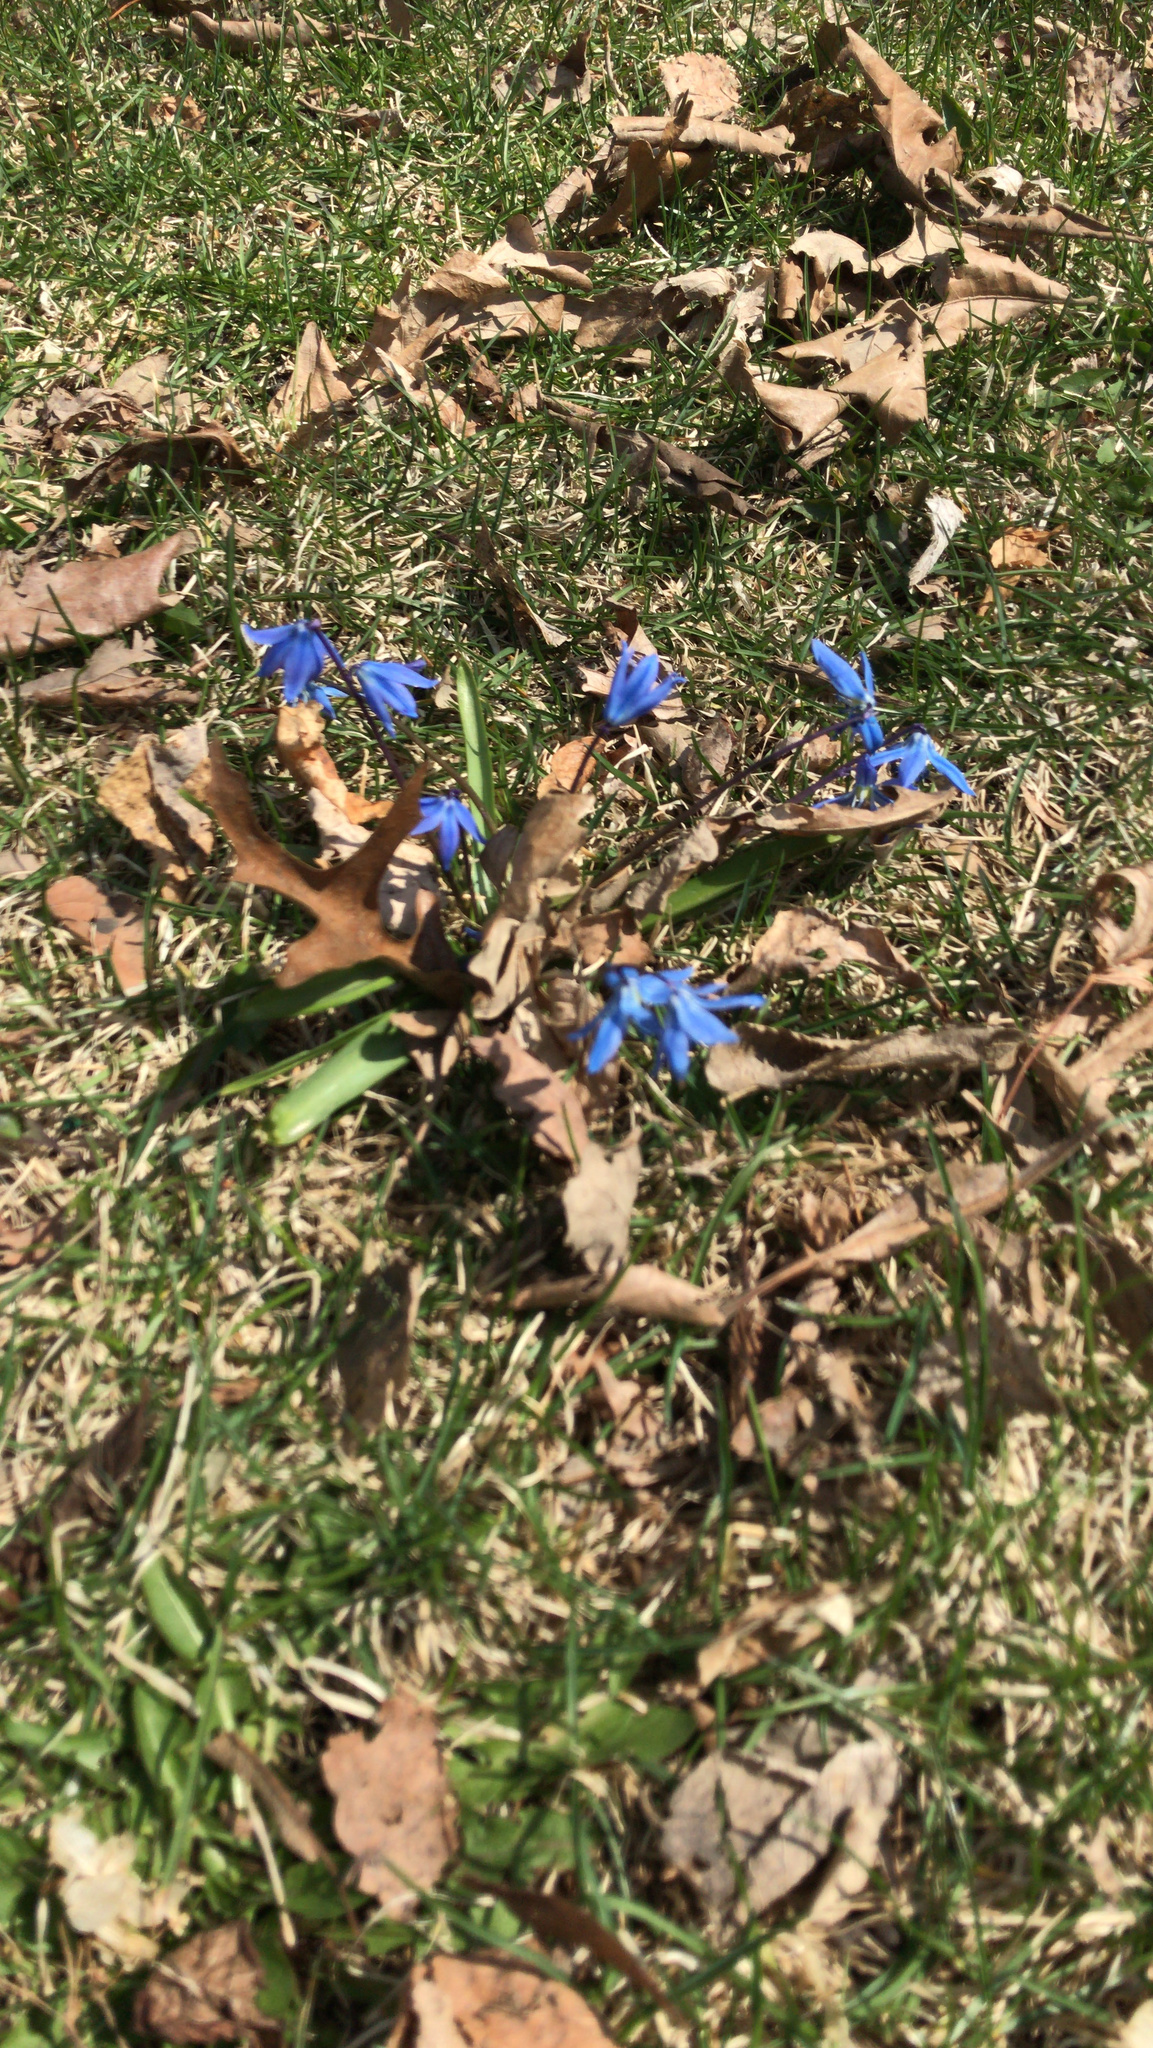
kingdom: Plantae
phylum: Tracheophyta
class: Liliopsida
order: Asparagales
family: Asparagaceae
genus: Scilla
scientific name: Scilla siberica
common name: Siberian squill
